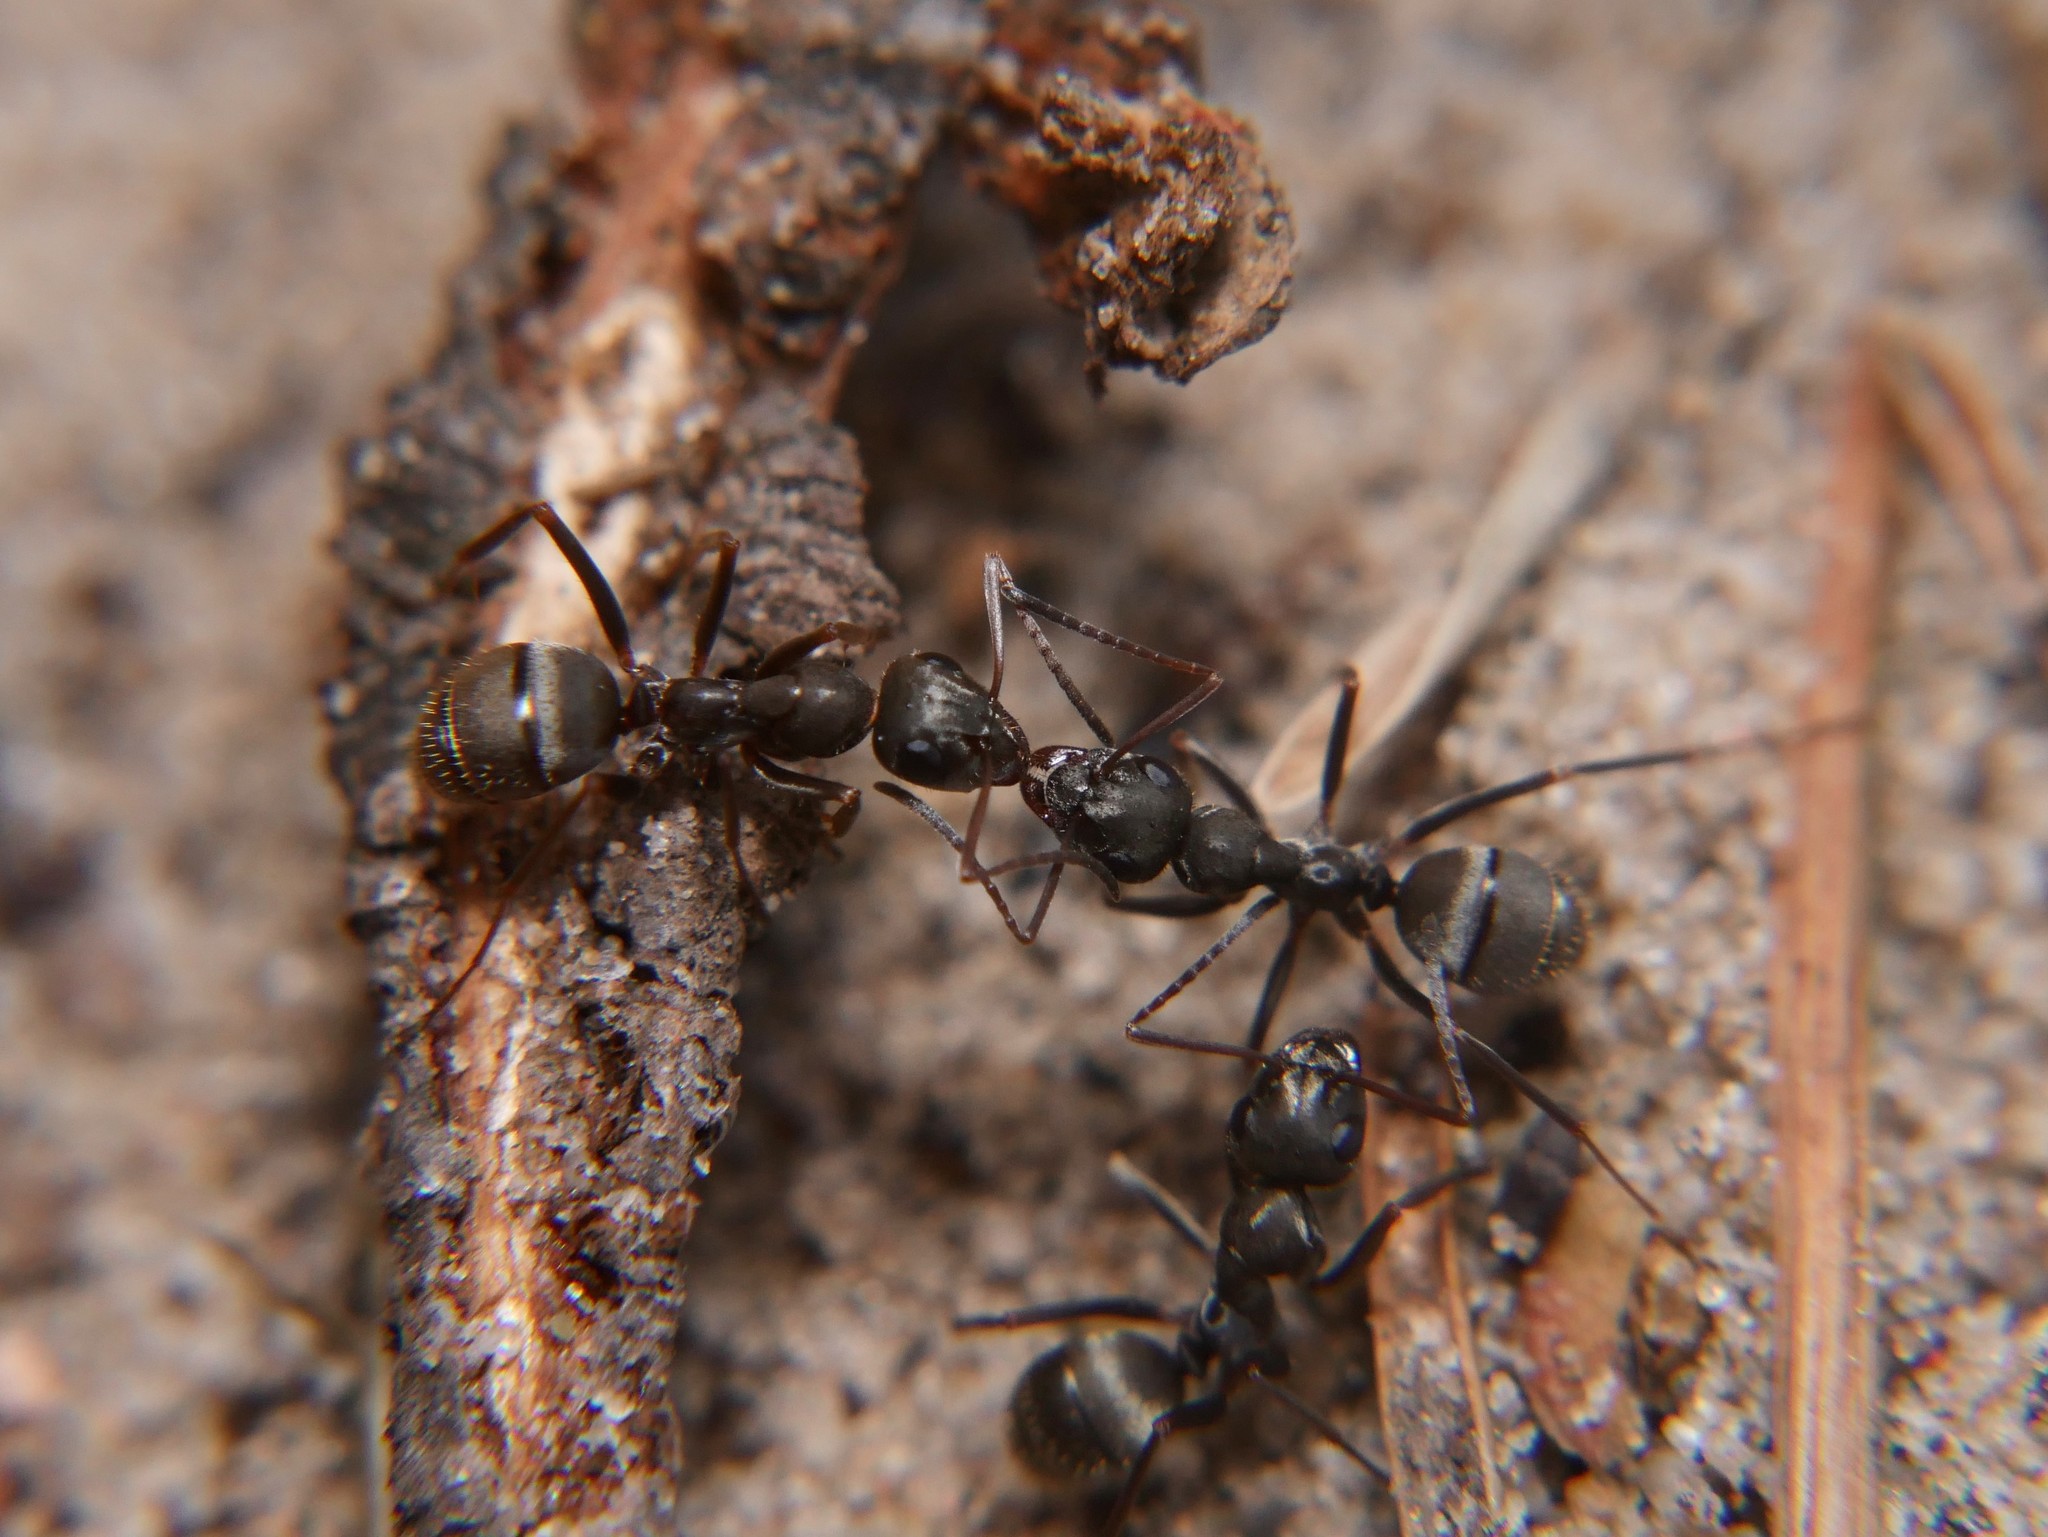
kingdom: Animalia
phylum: Arthropoda
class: Insecta
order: Hymenoptera
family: Formicidae
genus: Formica
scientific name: Formica cinerea
